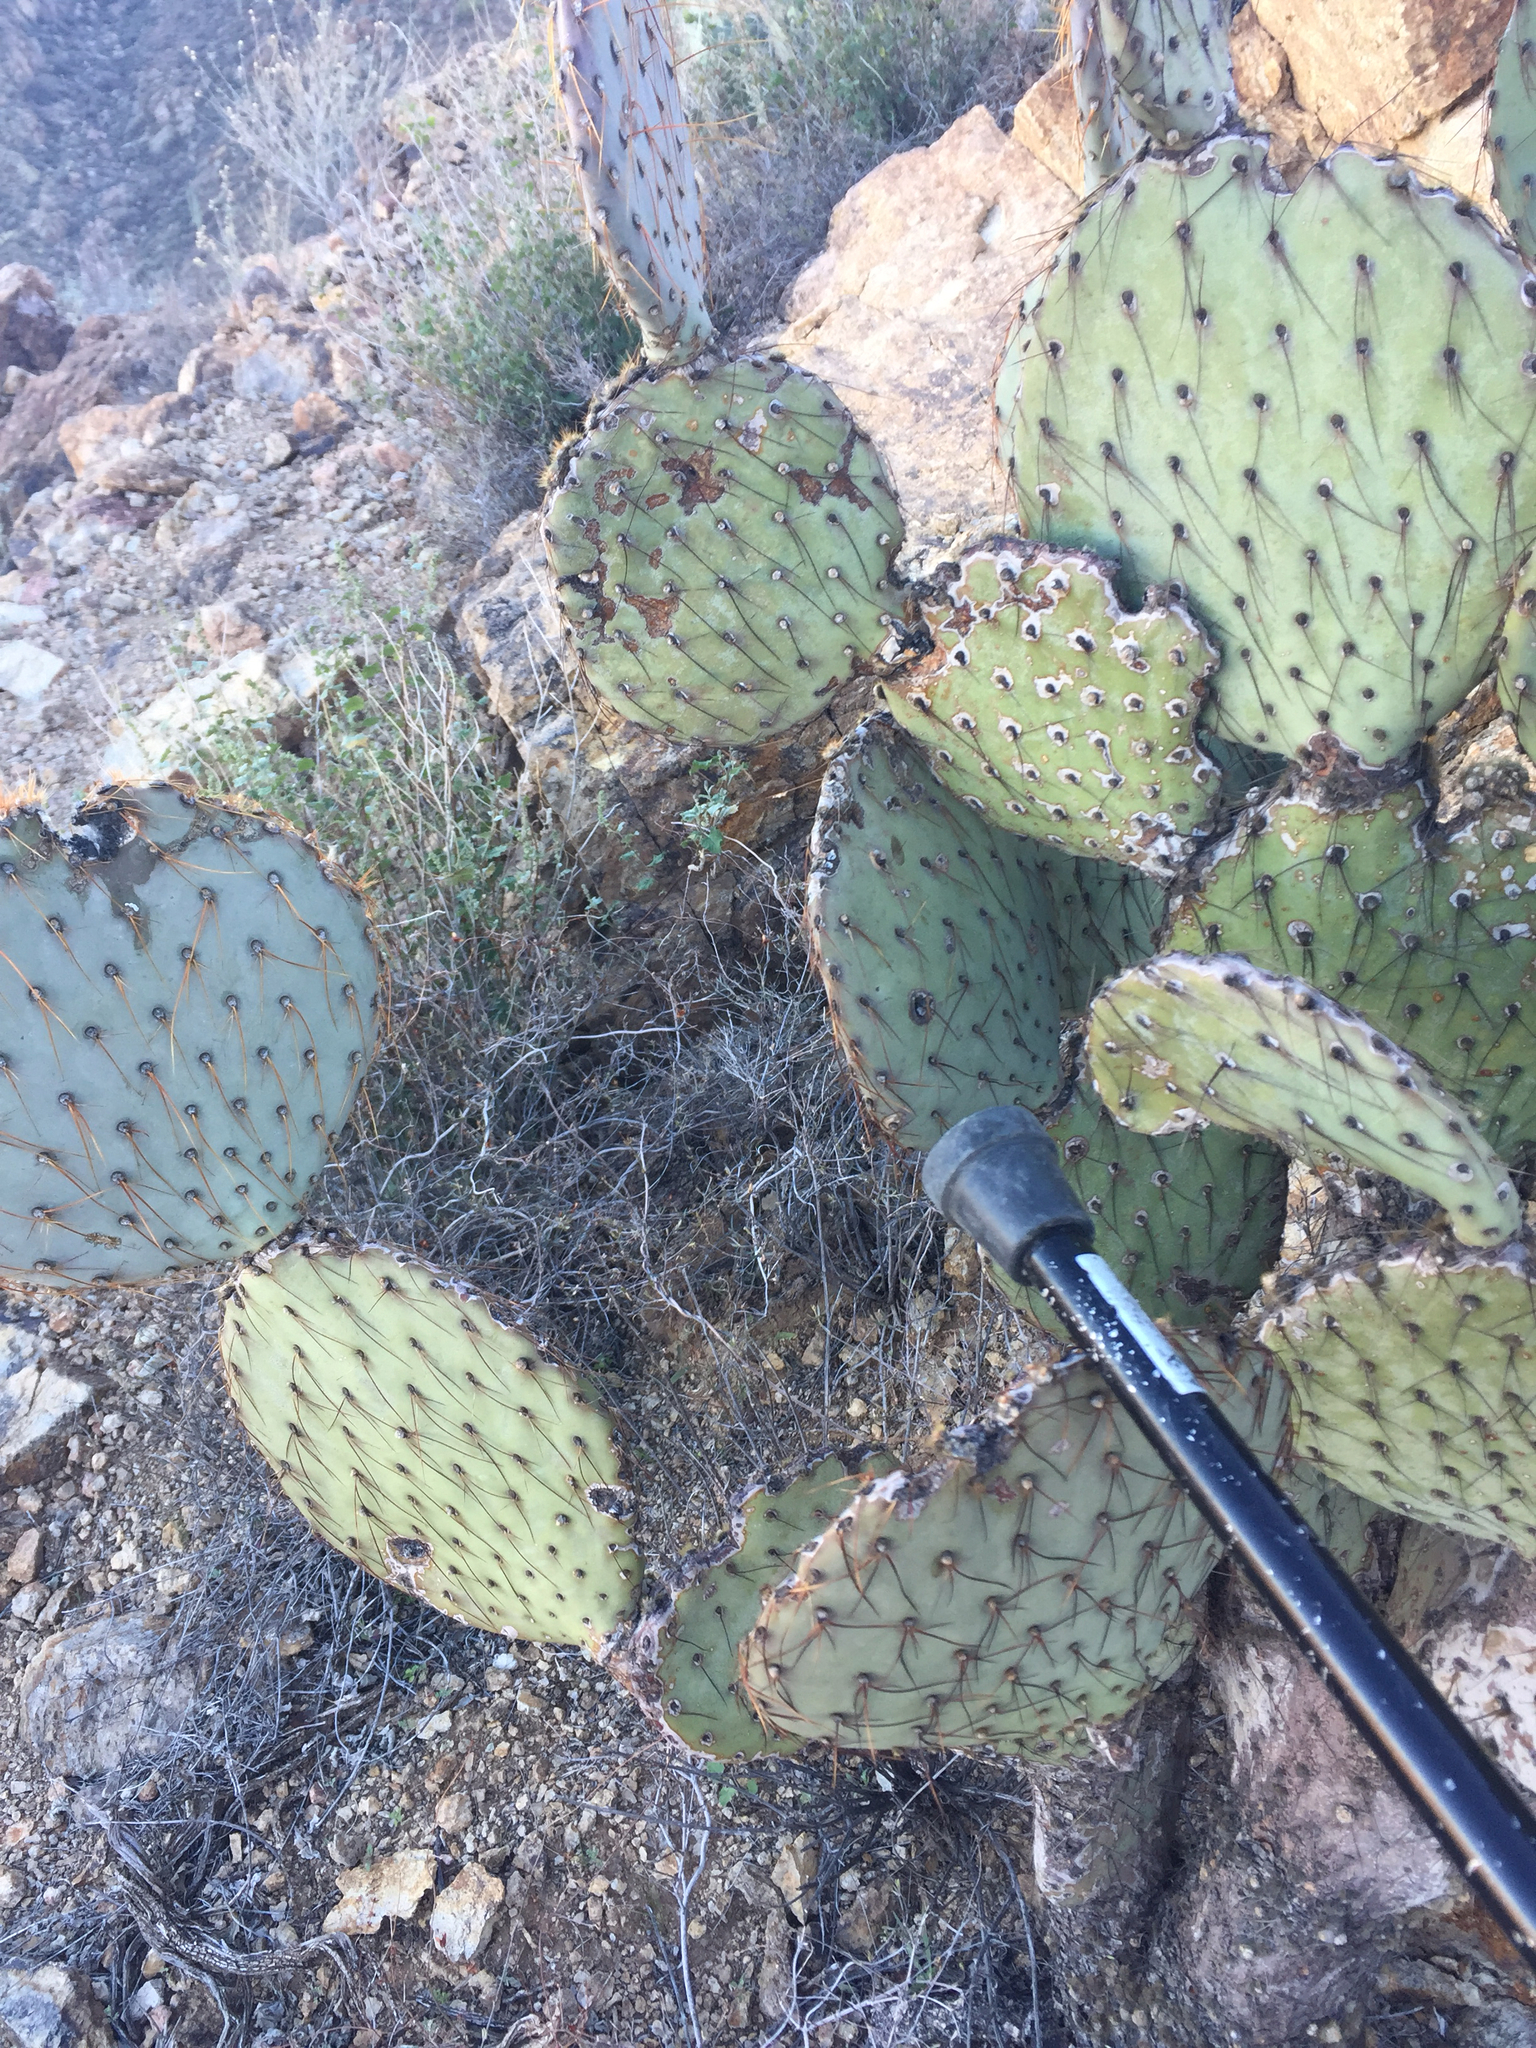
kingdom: Plantae
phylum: Tracheophyta
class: Magnoliopsida
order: Caryophyllales
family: Cactaceae
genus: Opuntia
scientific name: Opuntia chlorotica
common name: Dollar-joint prickly-pear
